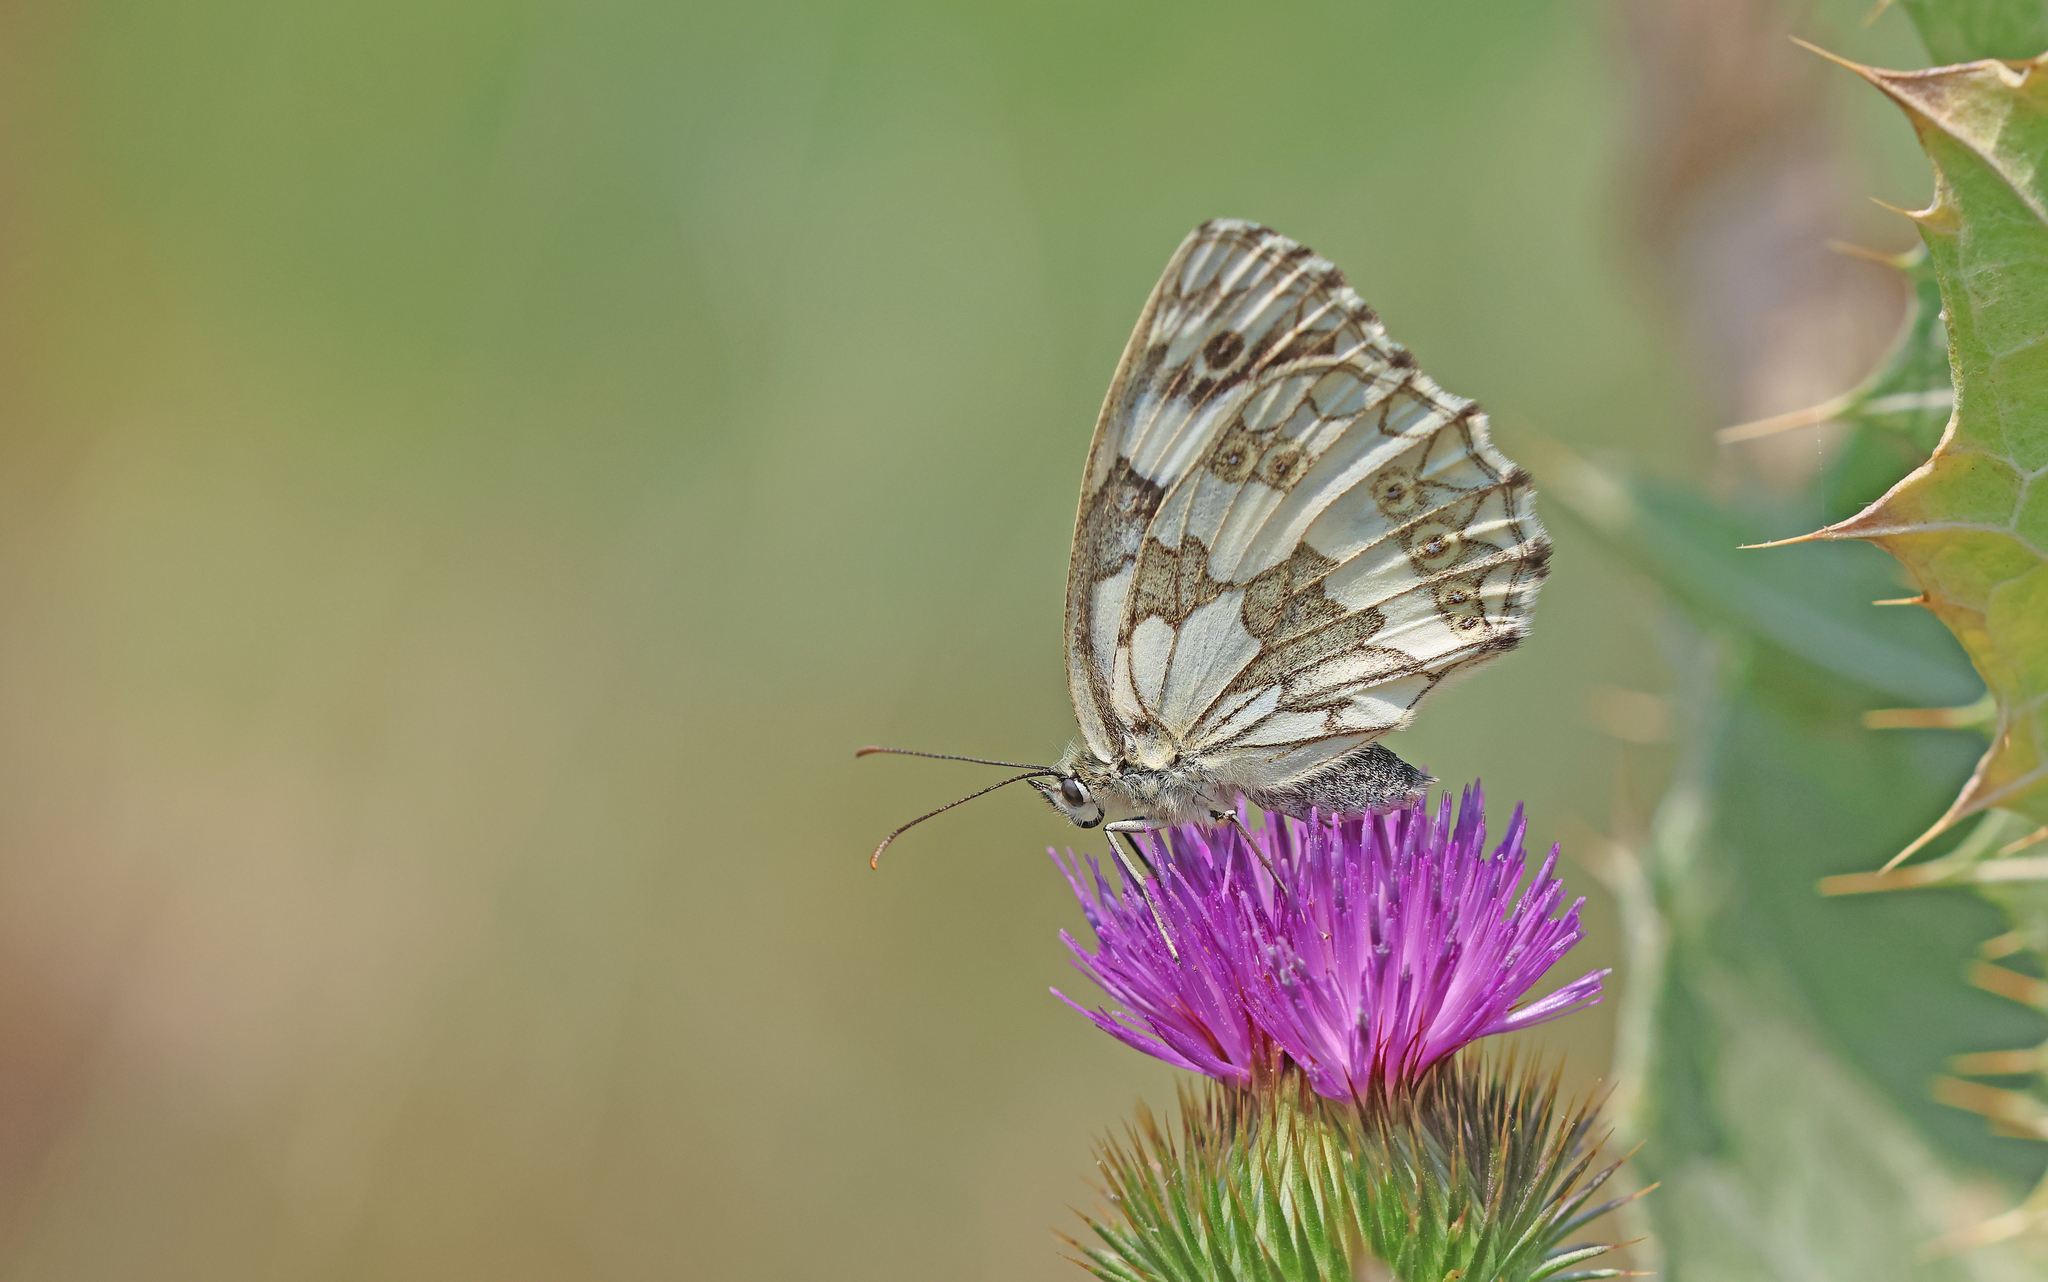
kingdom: Animalia
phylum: Arthropoda
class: Insecta
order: Lepidoptera
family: Nymphalidae
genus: Melanargia
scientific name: Melanargia galathea
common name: Marbled white
